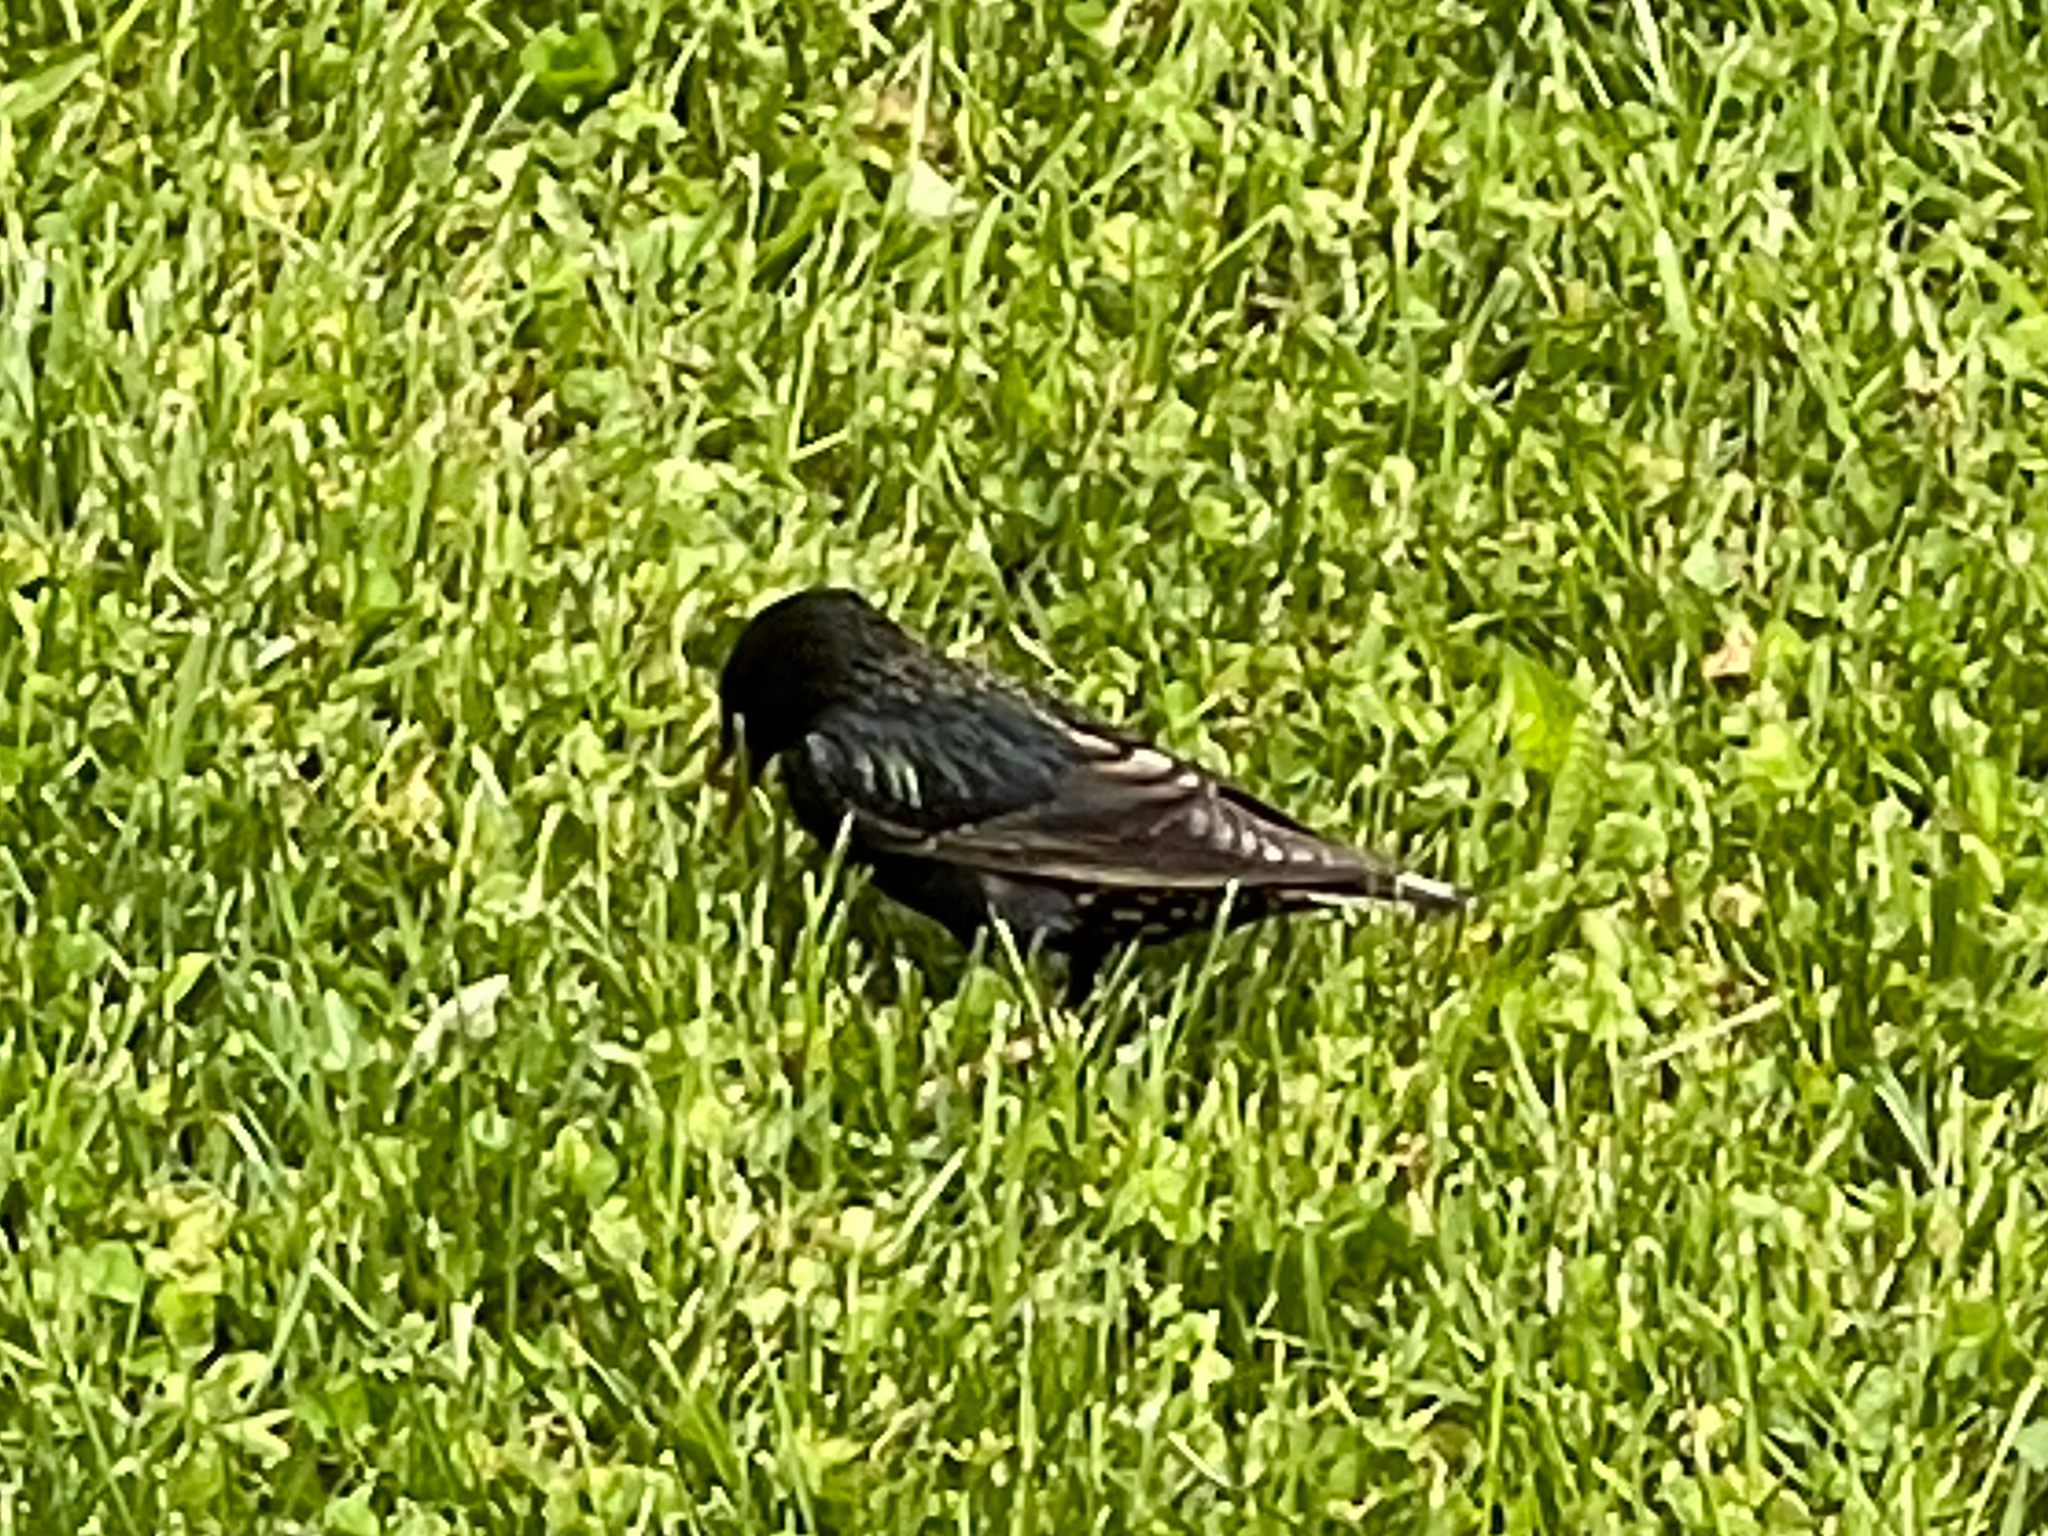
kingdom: Animalia
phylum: Chordata
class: Aves
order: Passeriformes
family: Sturnidae
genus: Sturnus
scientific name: Sturnus vulgaris
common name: Common starling
